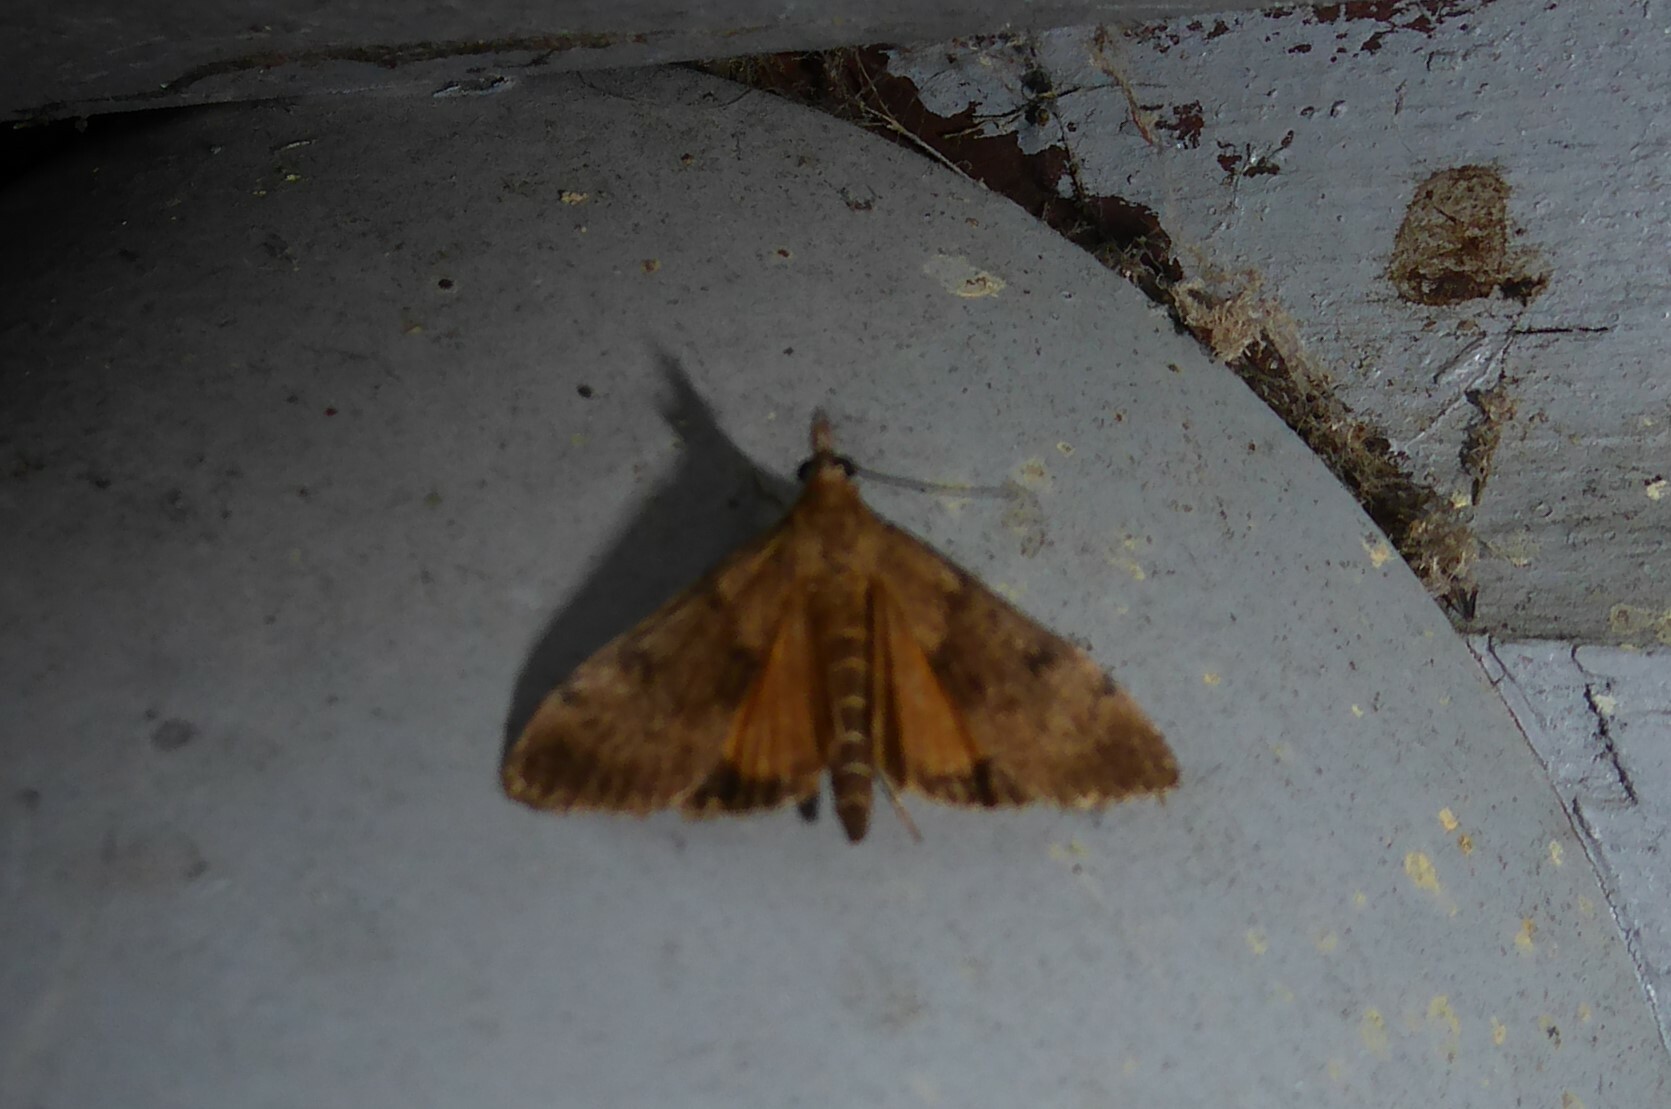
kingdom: Animalia
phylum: Arthropoda
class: Insecta
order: Lepidoptera
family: Crambidae
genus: Uresiphita
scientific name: Uresiphita
